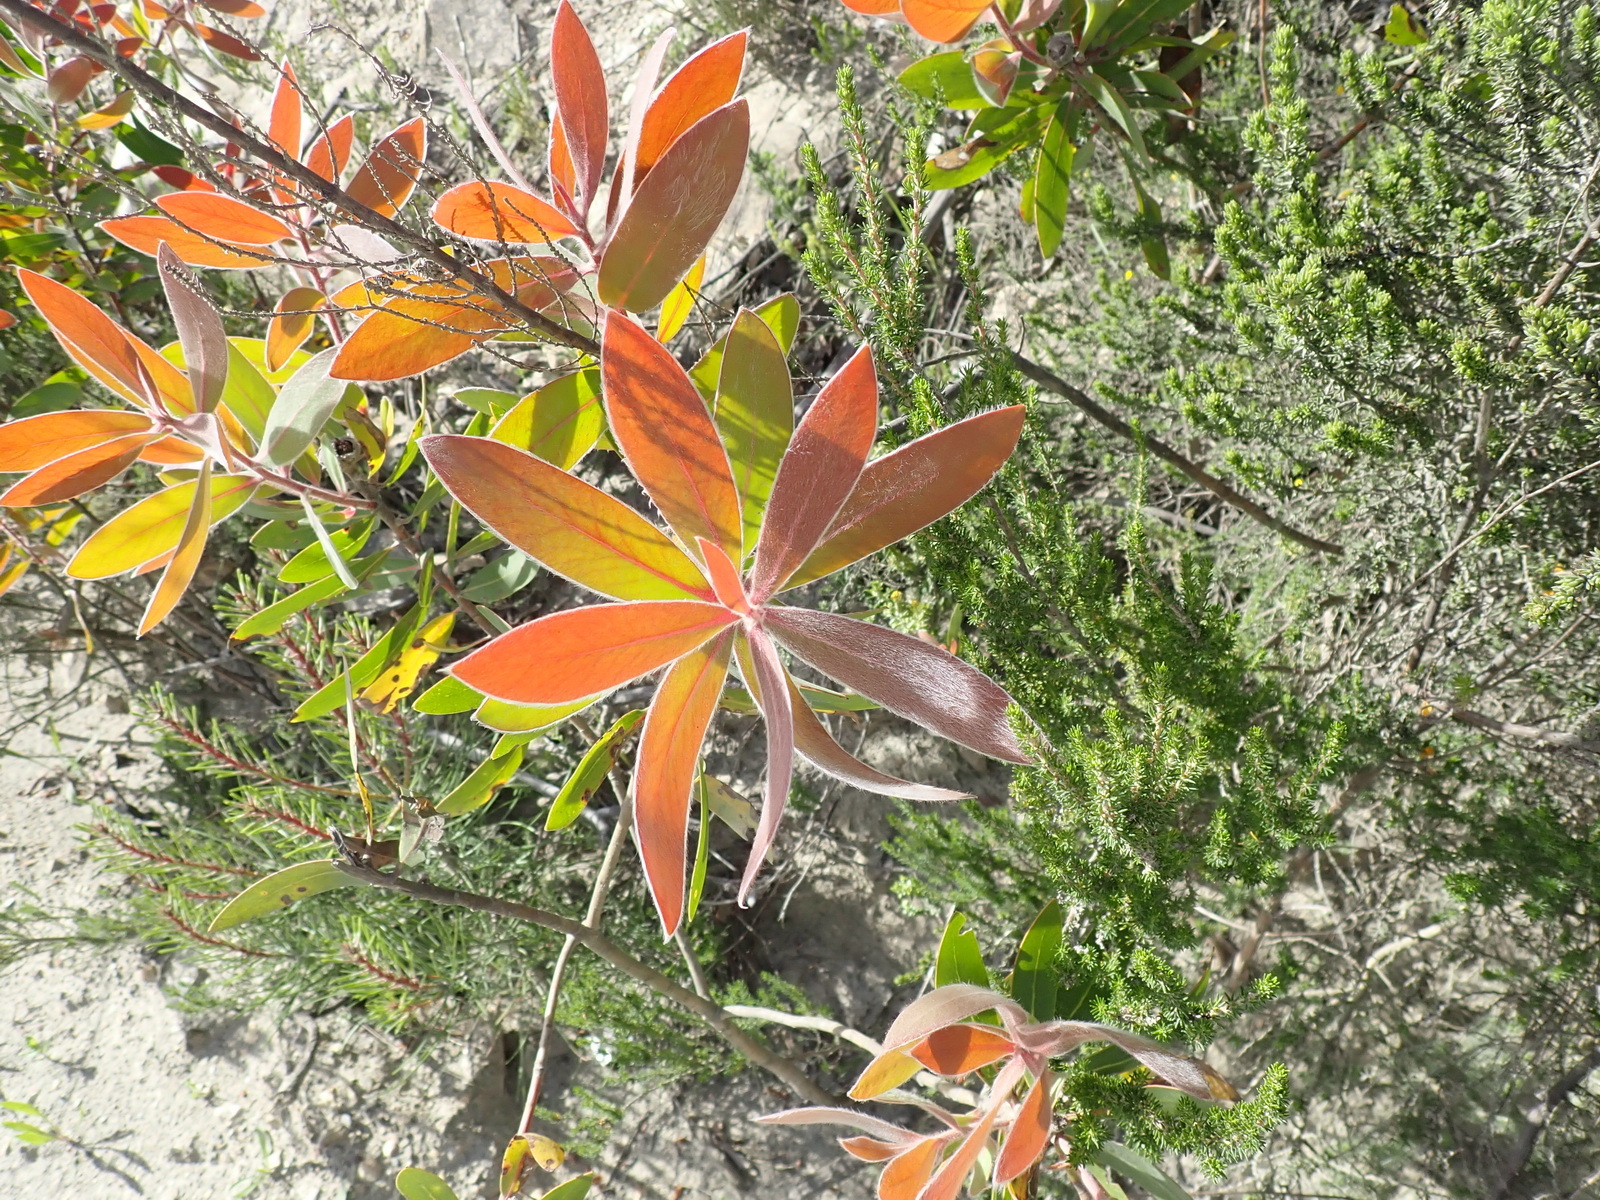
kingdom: Plantae
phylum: Tracheophyta
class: Magnoliopsida
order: Proteales
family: Proteaceae
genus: Protea
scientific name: Protea neriifolia
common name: Blue sugarbush
